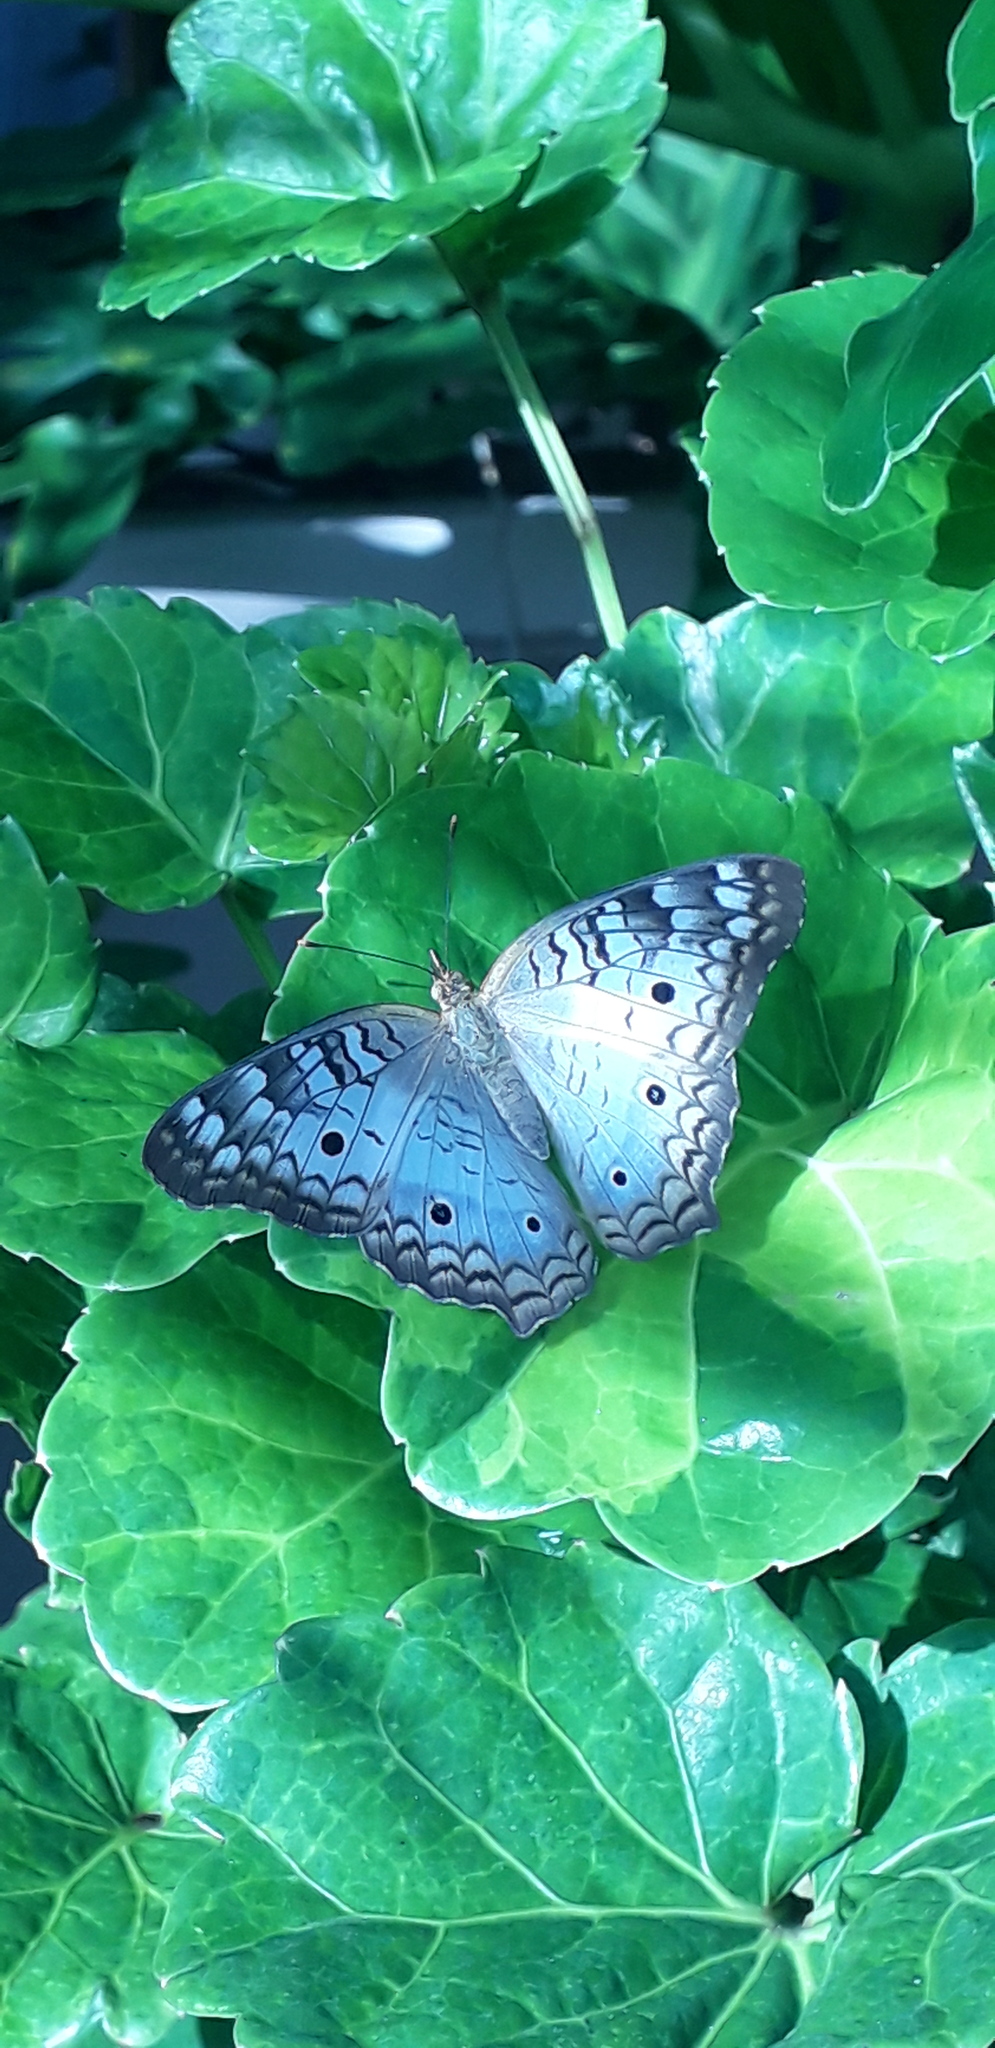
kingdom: Animalia
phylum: Arthropoda
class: Insecta
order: Lepidoptera
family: Nymphalidae
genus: Anartia
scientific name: Anartia jatrophae
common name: White peacock
